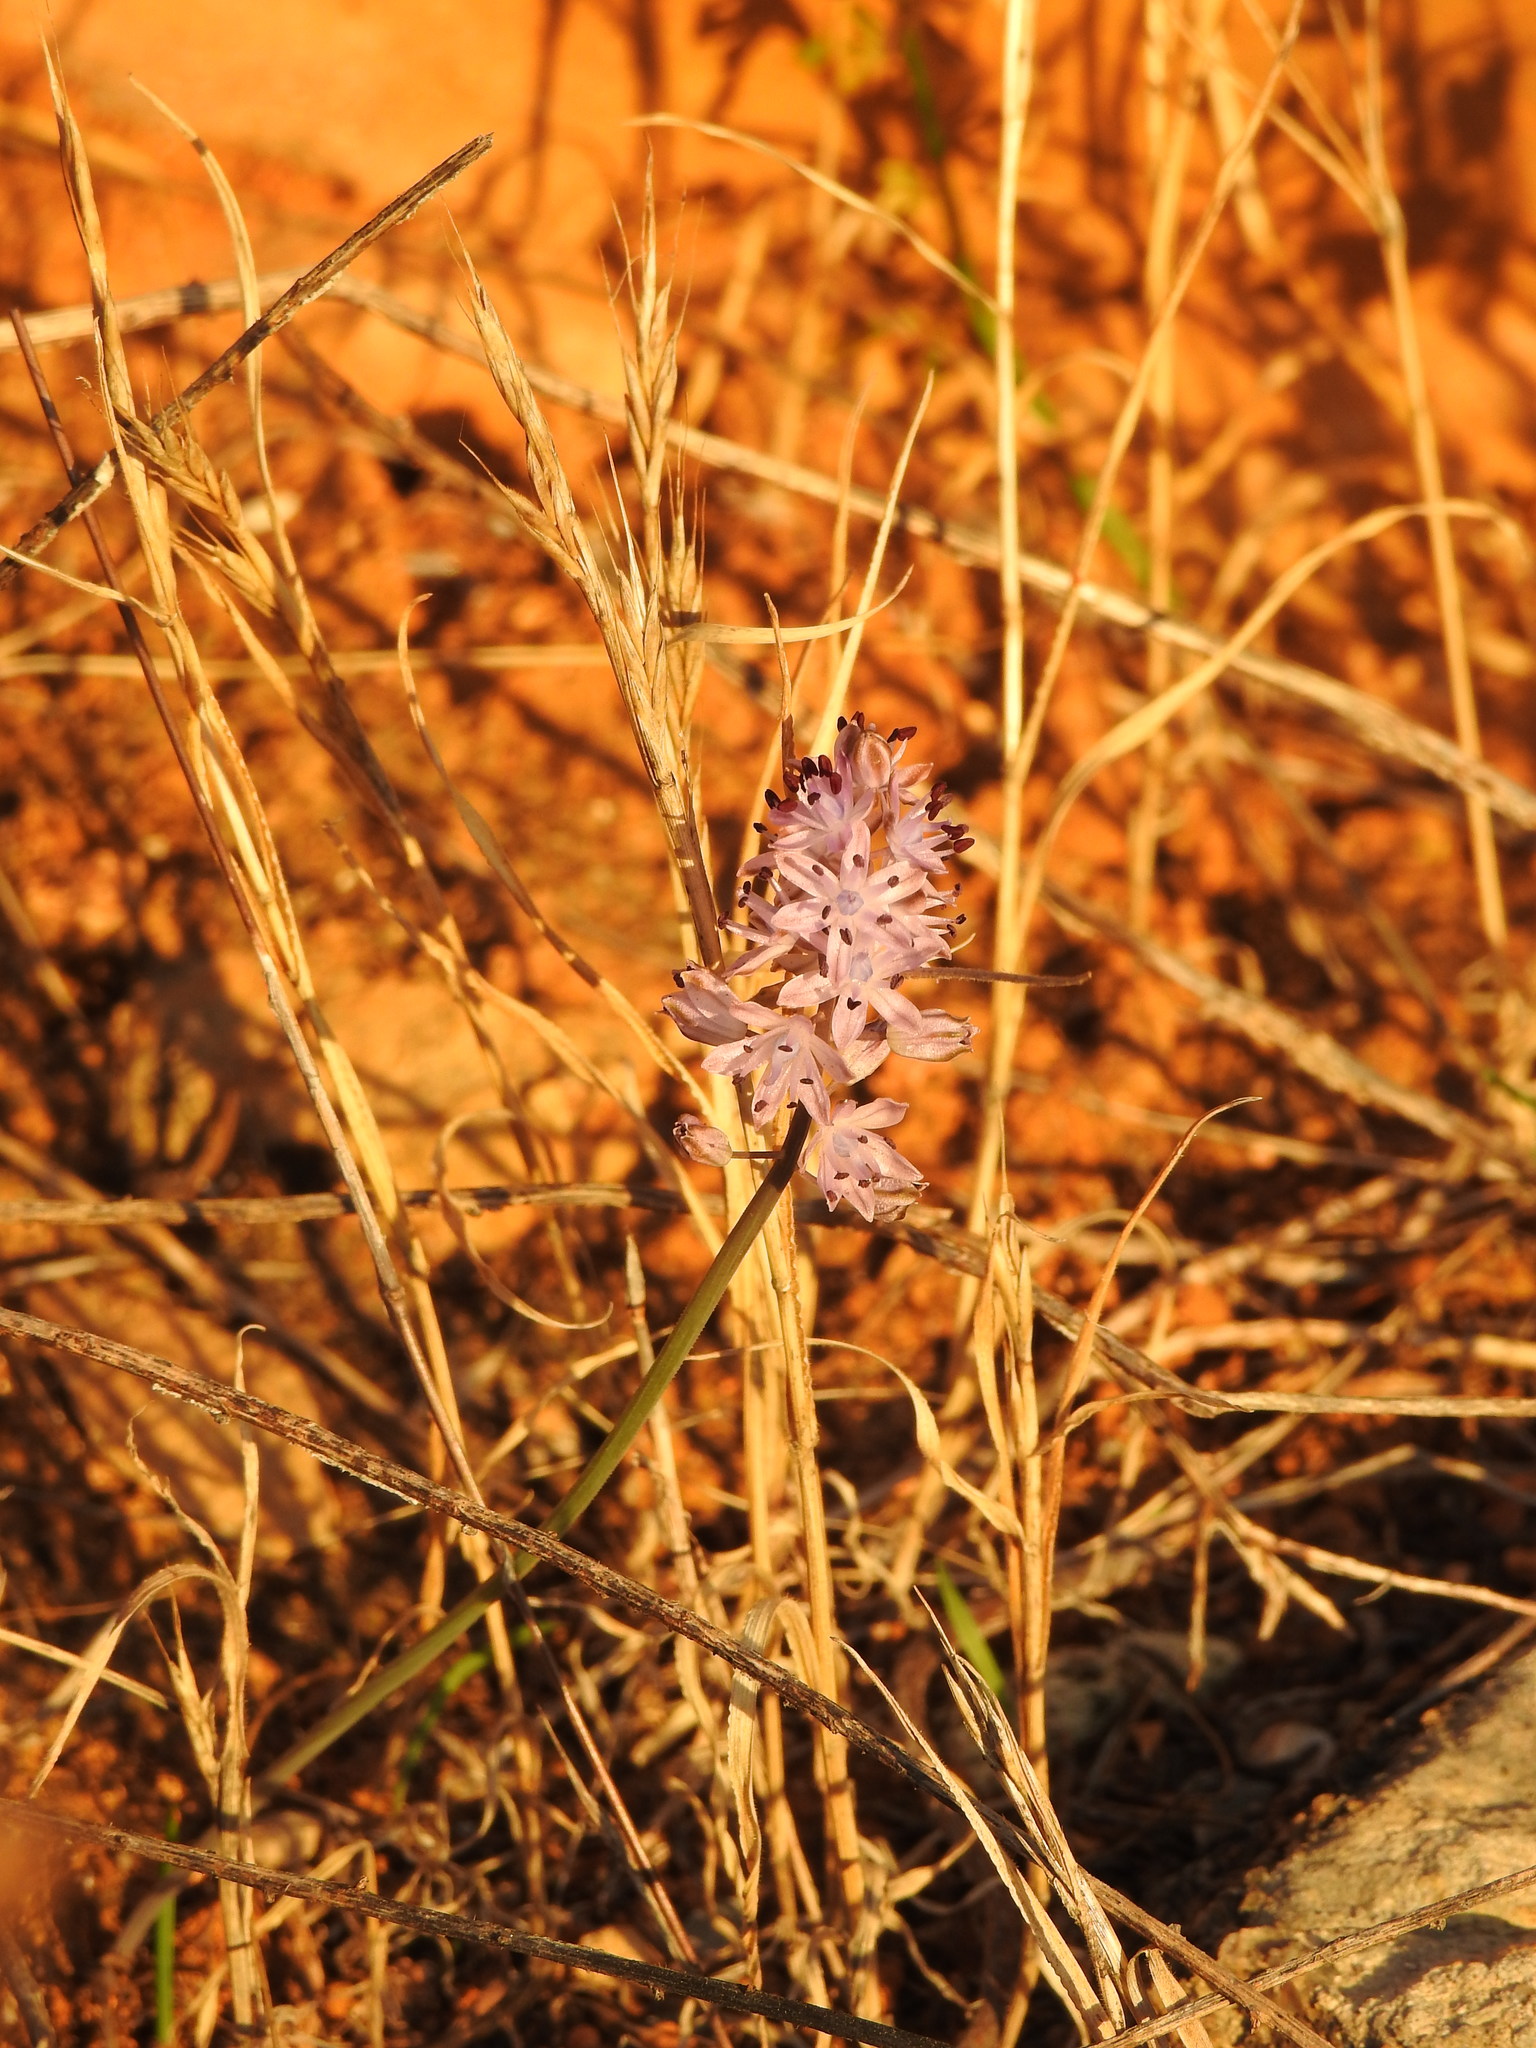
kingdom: Plantae
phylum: Tracheophyta
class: Liliopsida
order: Asparagales
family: Asparagaceae
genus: Prospero
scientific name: Prospero autumnale
